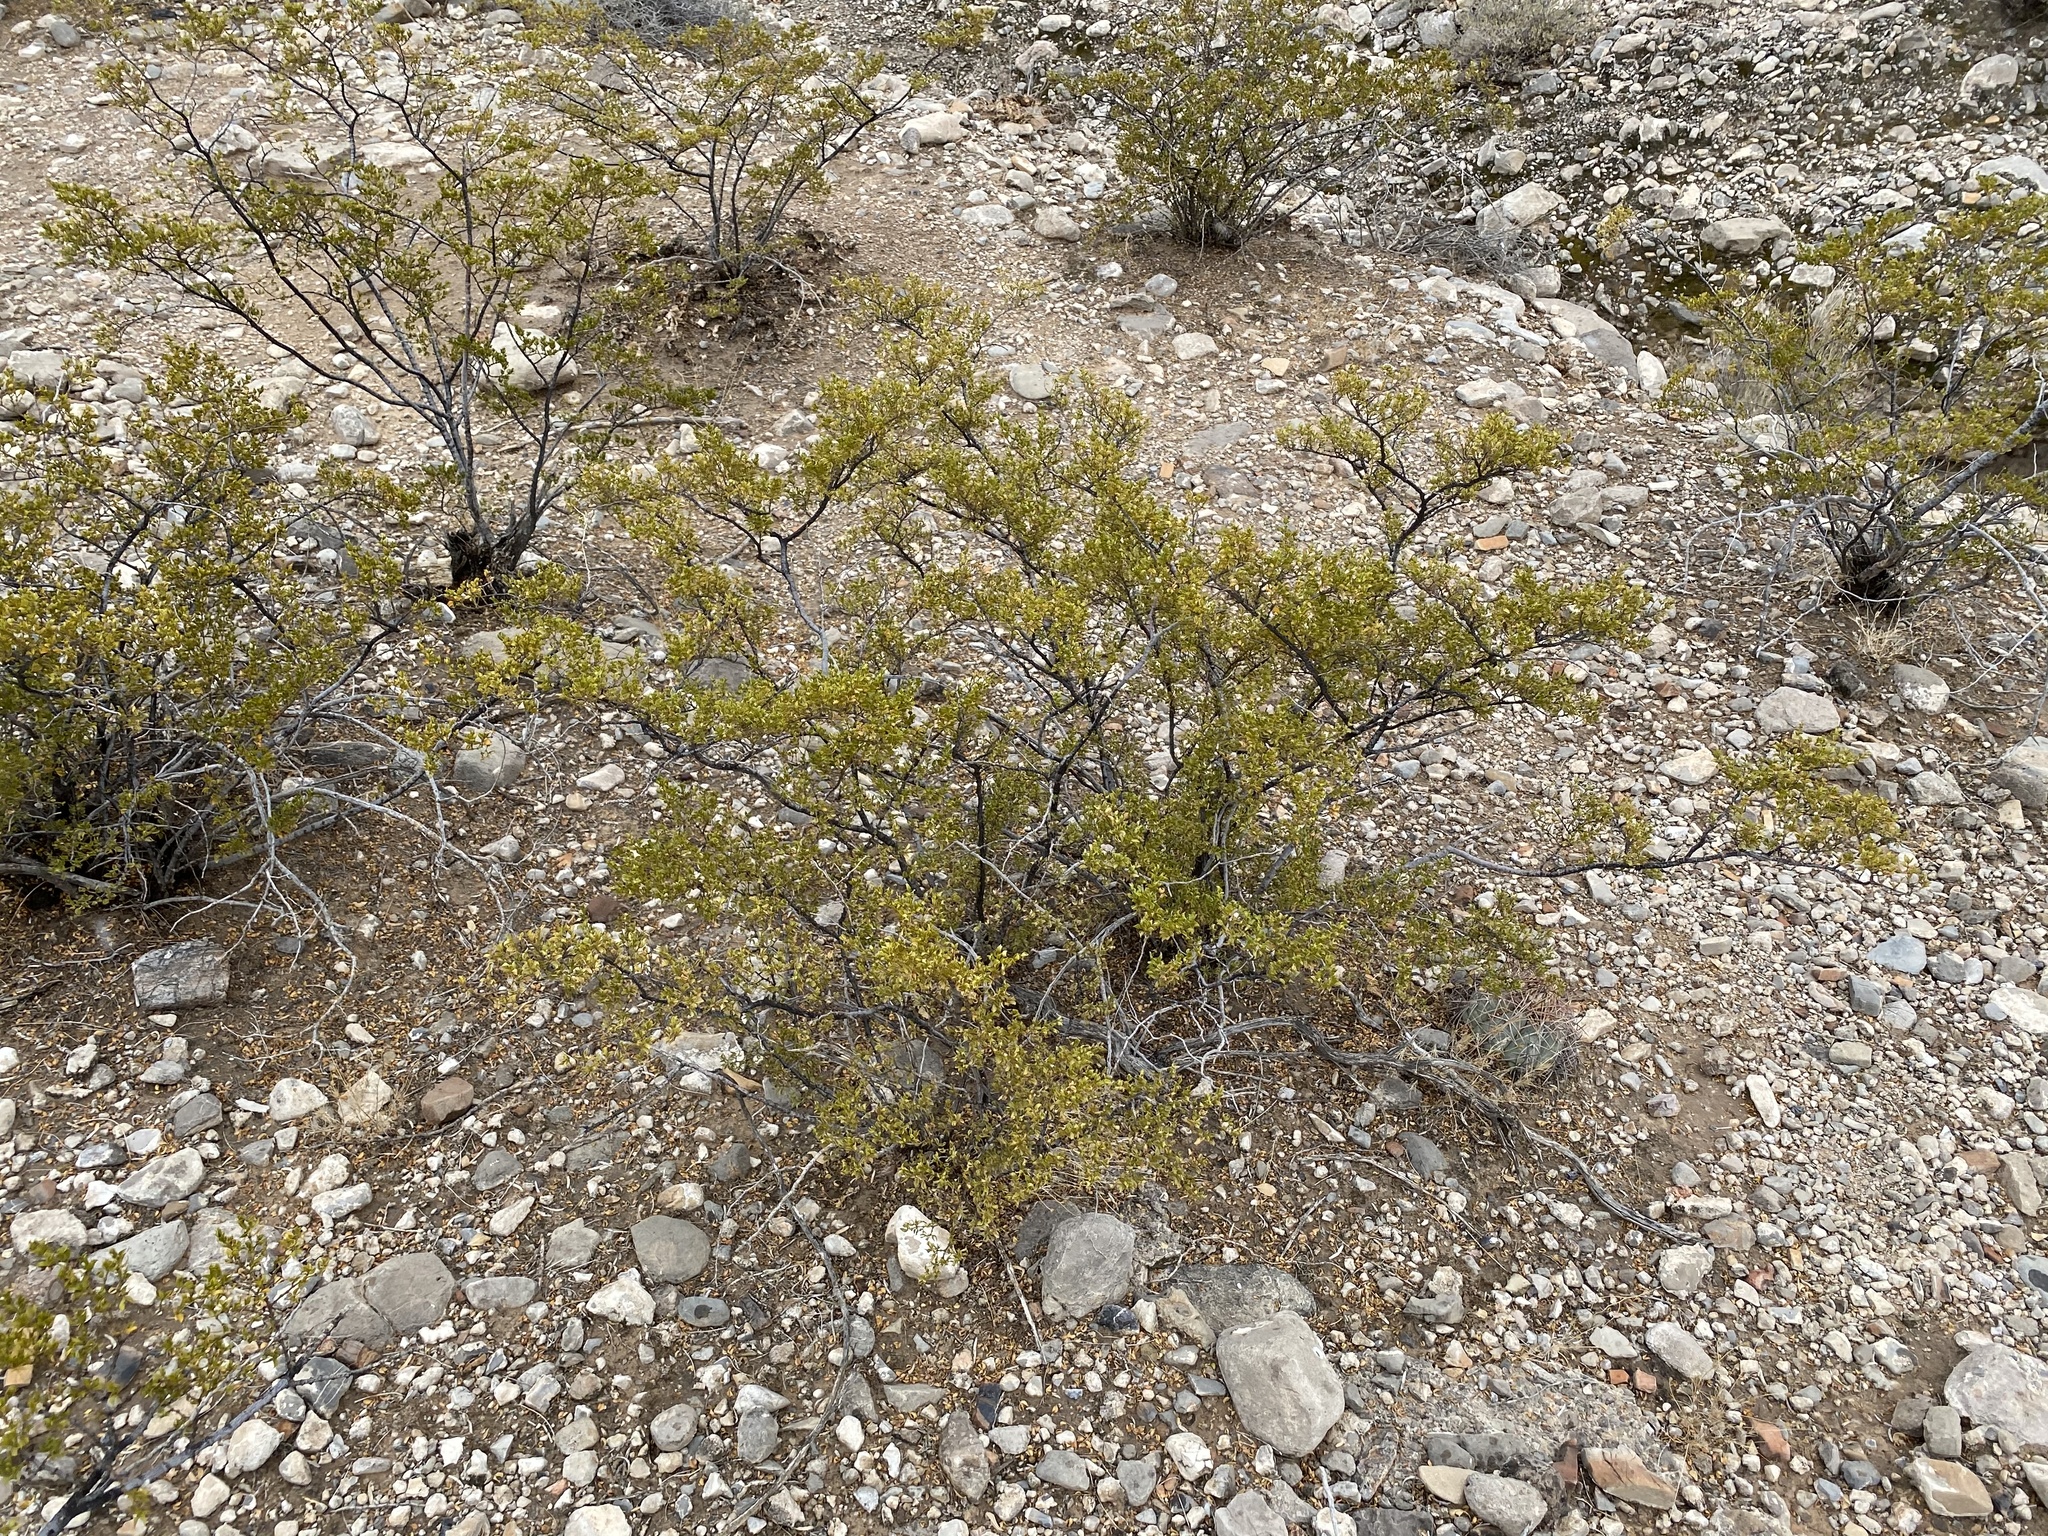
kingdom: Plantae
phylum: Tracheophyta
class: Magnoliopsida
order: Zygophyllales
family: Zygophyllaceae
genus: Larrea
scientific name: Larrea tridentata
